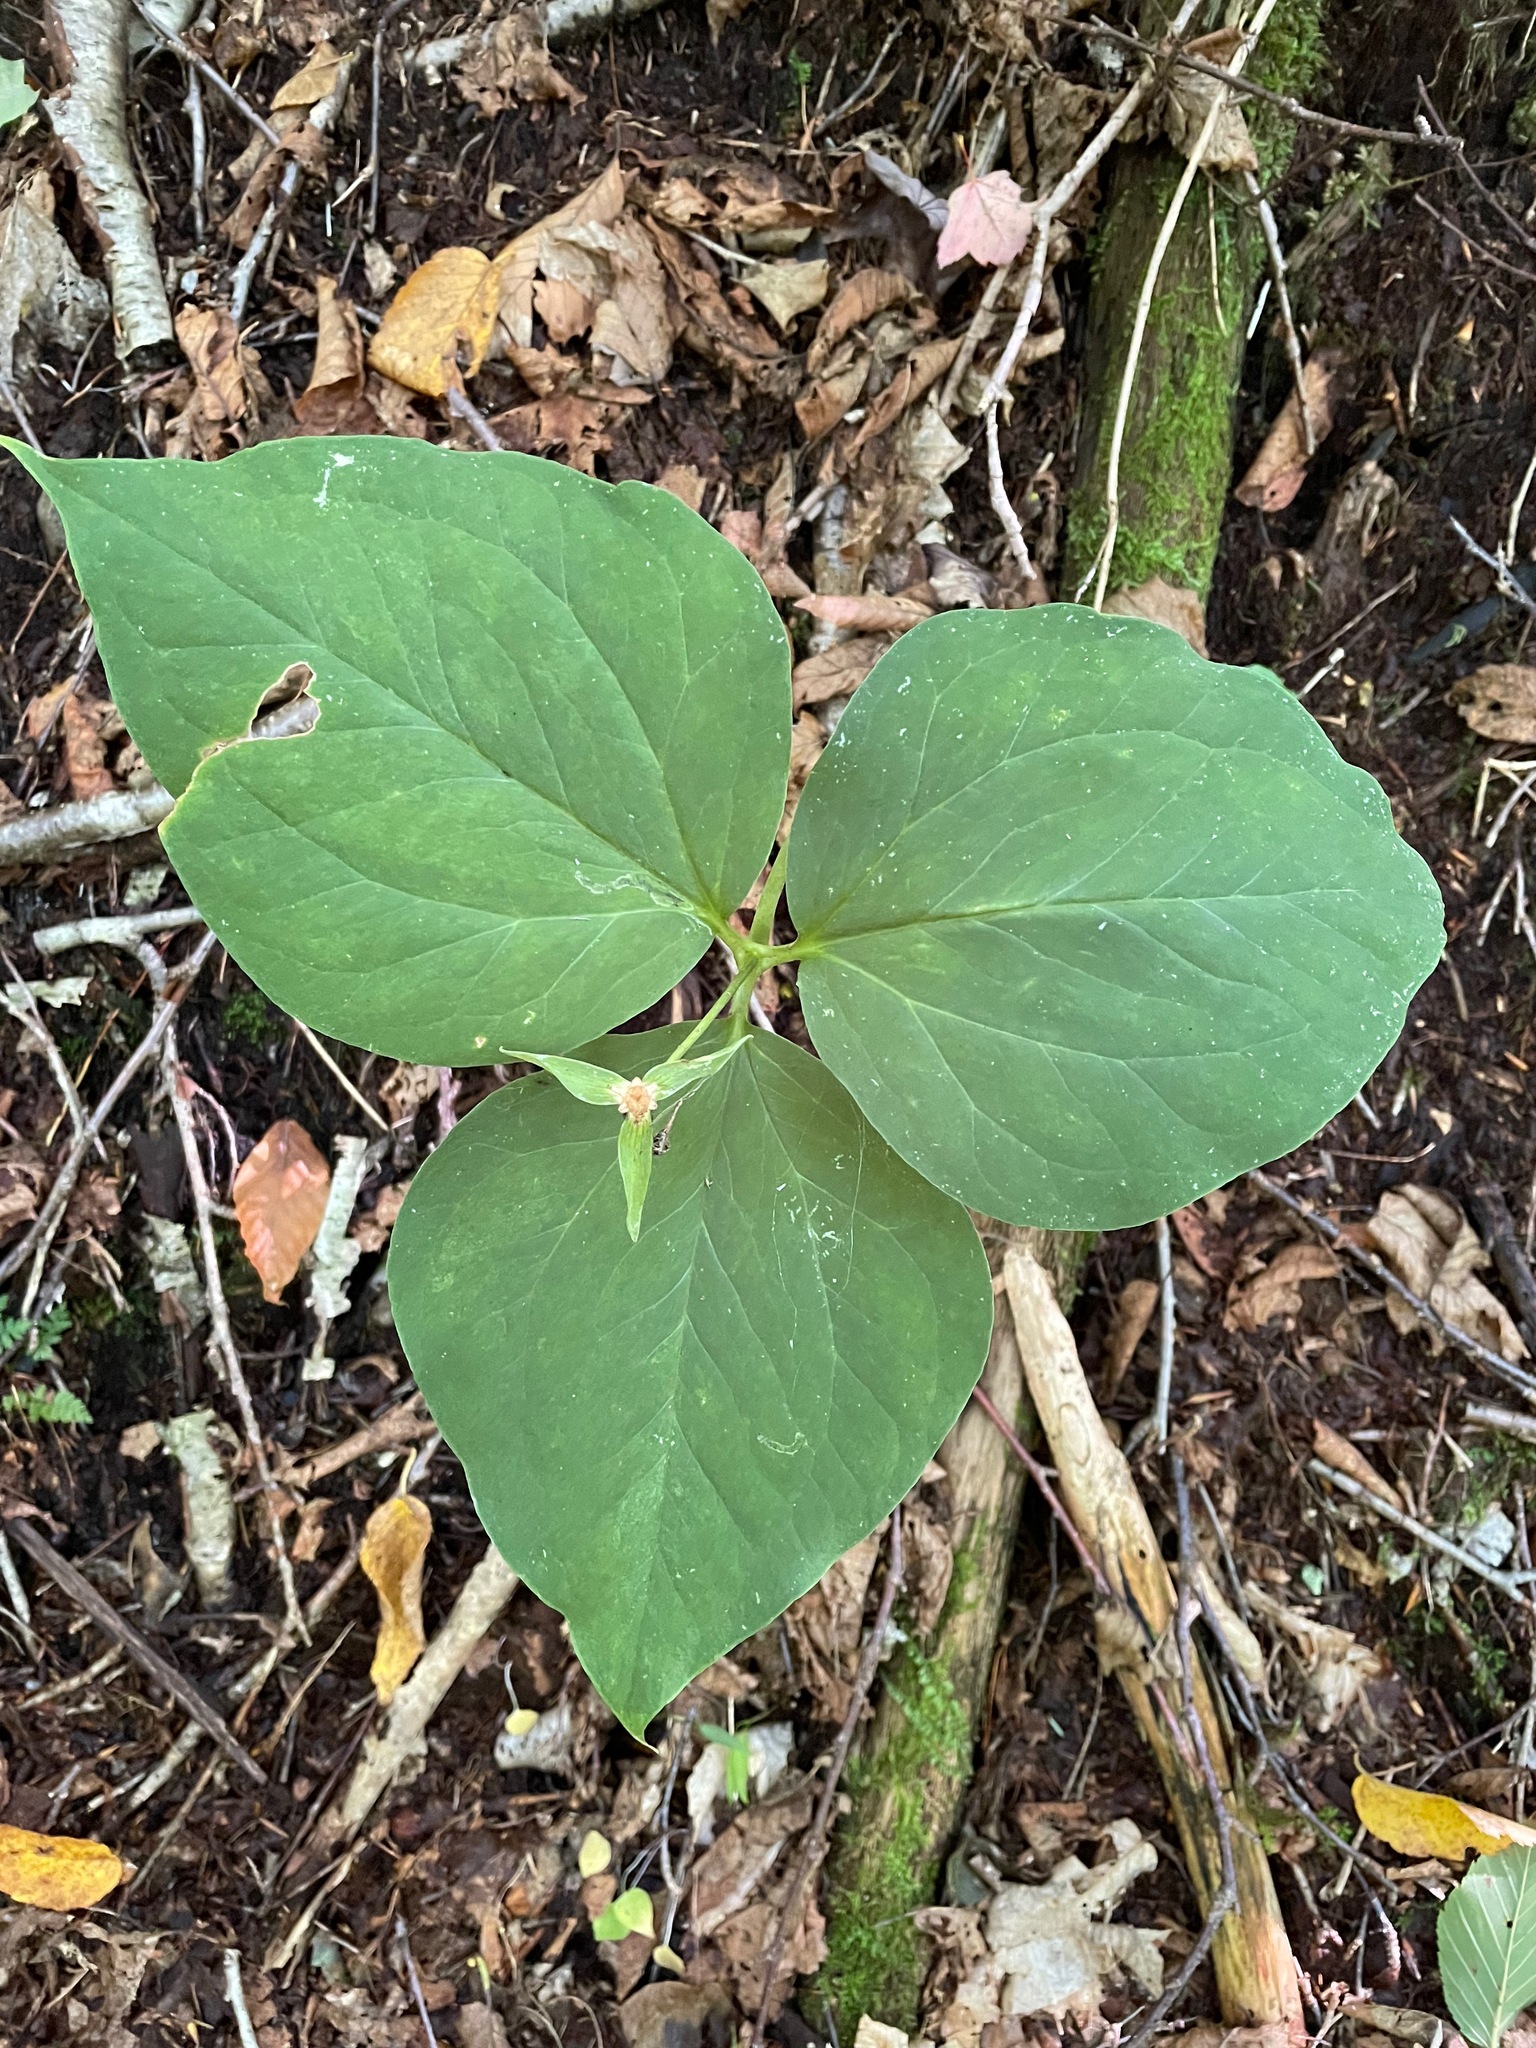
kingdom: Plantae
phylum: Tracheophyta
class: Liliopsida
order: Liliales
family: Melanthiaceae
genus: Trillium
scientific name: Trillium undulatum
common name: Paint trillium
